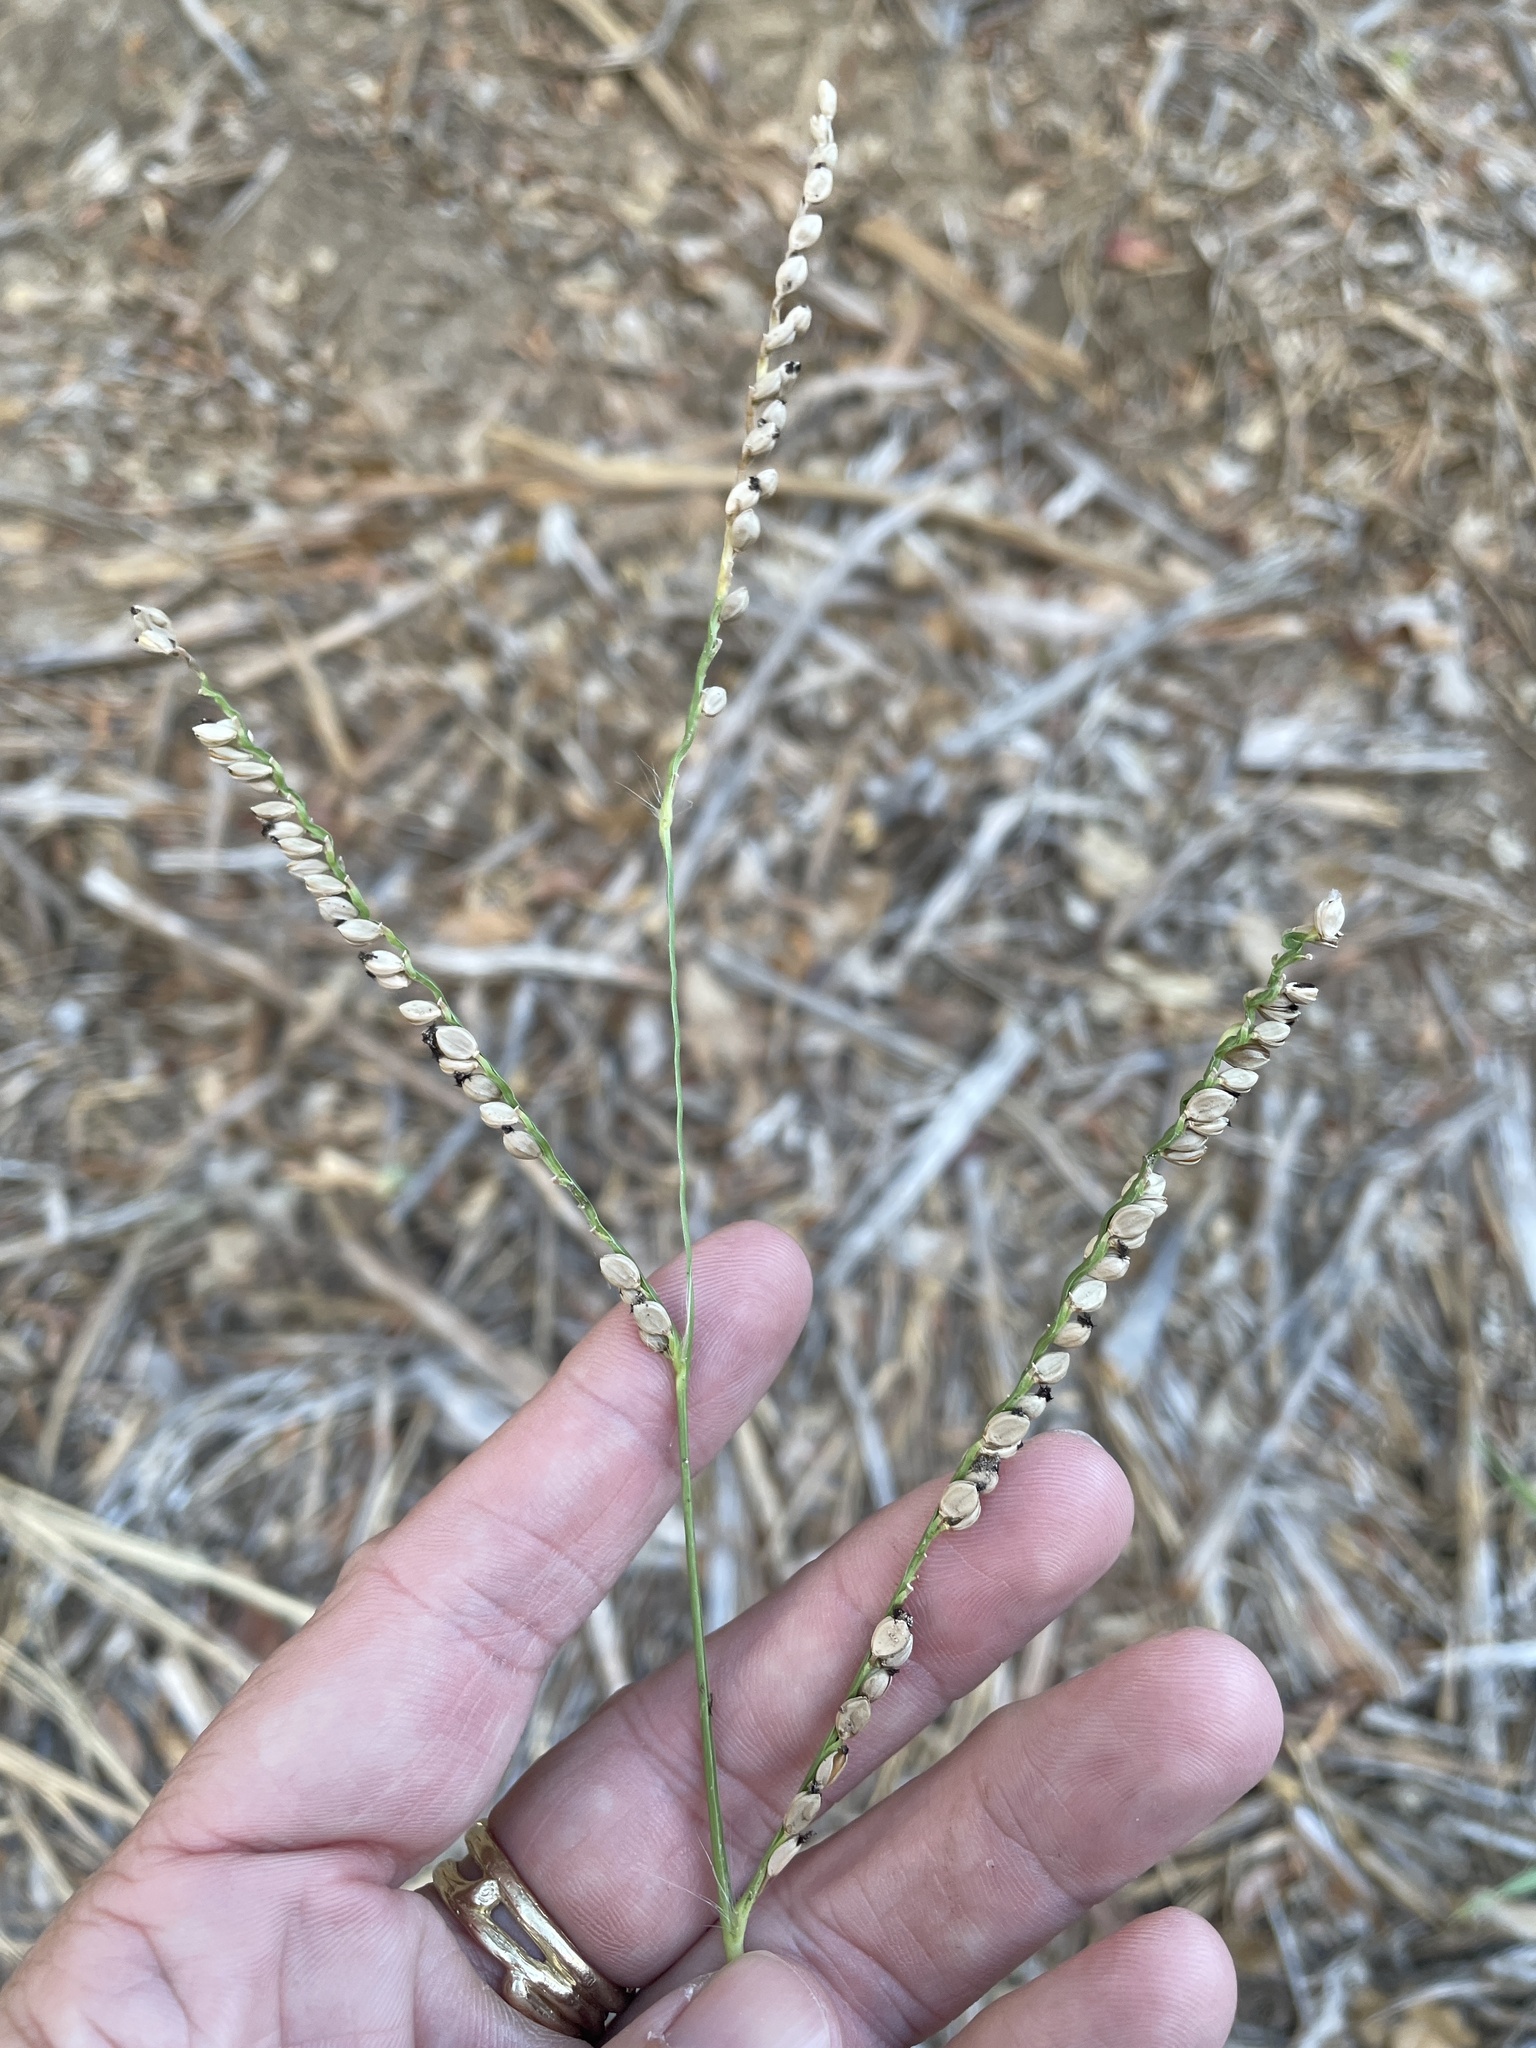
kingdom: Plantae
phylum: Tracheophyta
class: Liliopsida
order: Poales
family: Poaceae
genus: Paspalum
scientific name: Paspalum floridanum
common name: Florida paspalum
